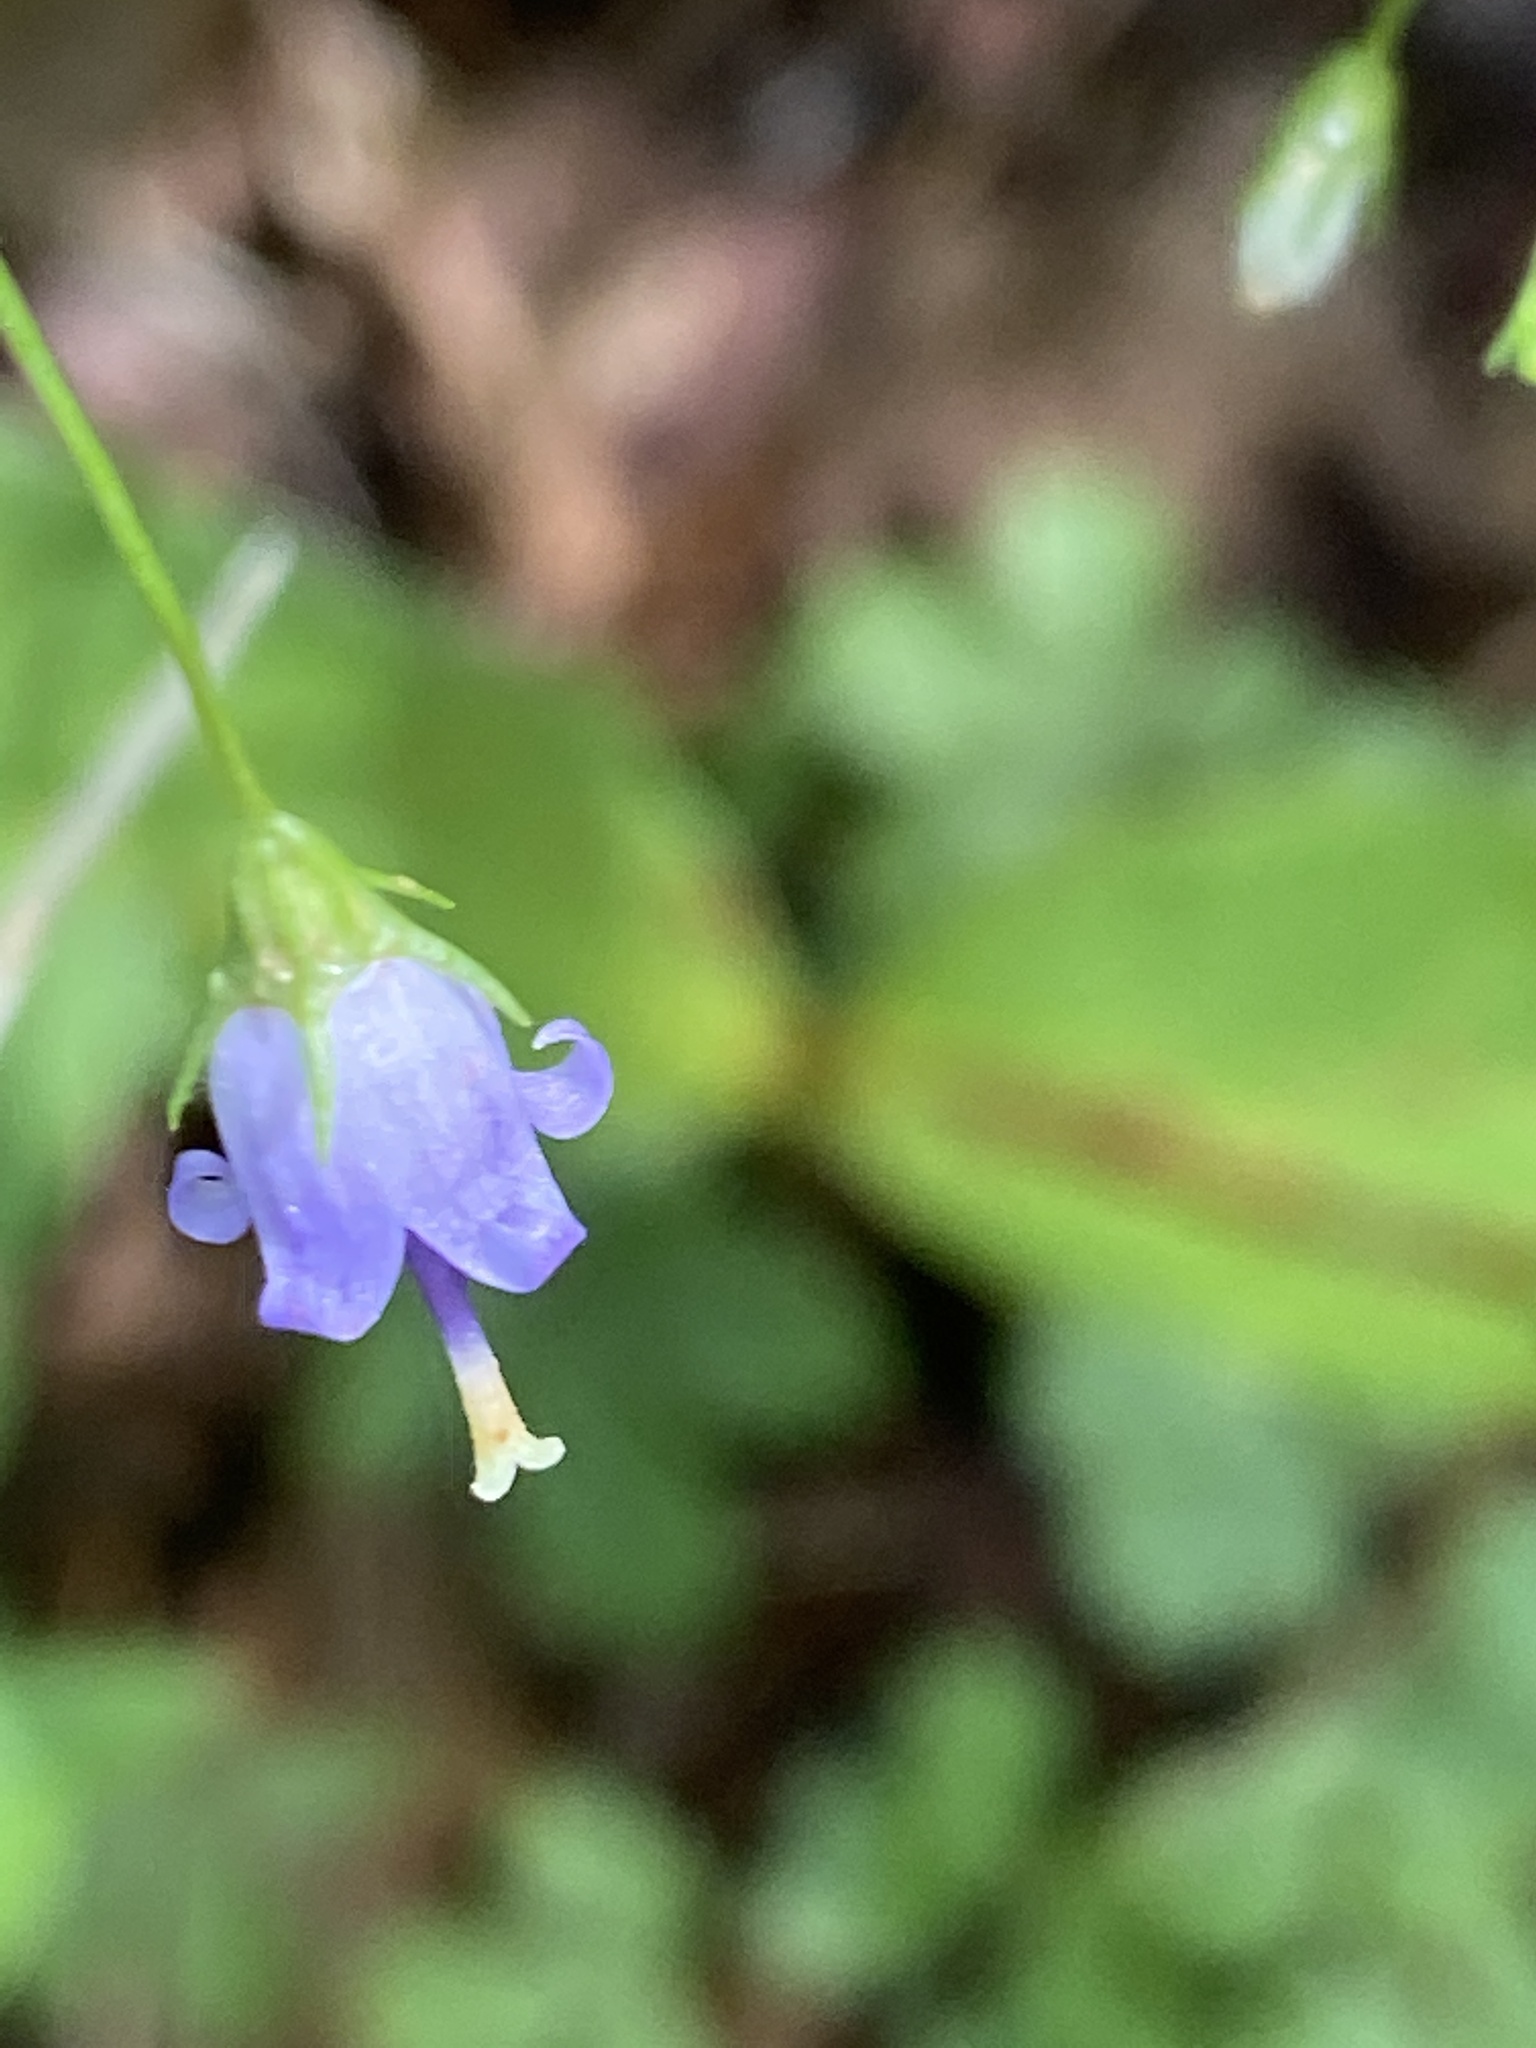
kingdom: Plantae
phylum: Tracheophyta
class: Magnoliopsida
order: Asterales
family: Campanulaceae
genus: Campanula
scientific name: Campanula divaricata
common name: Appalachian bellflower
